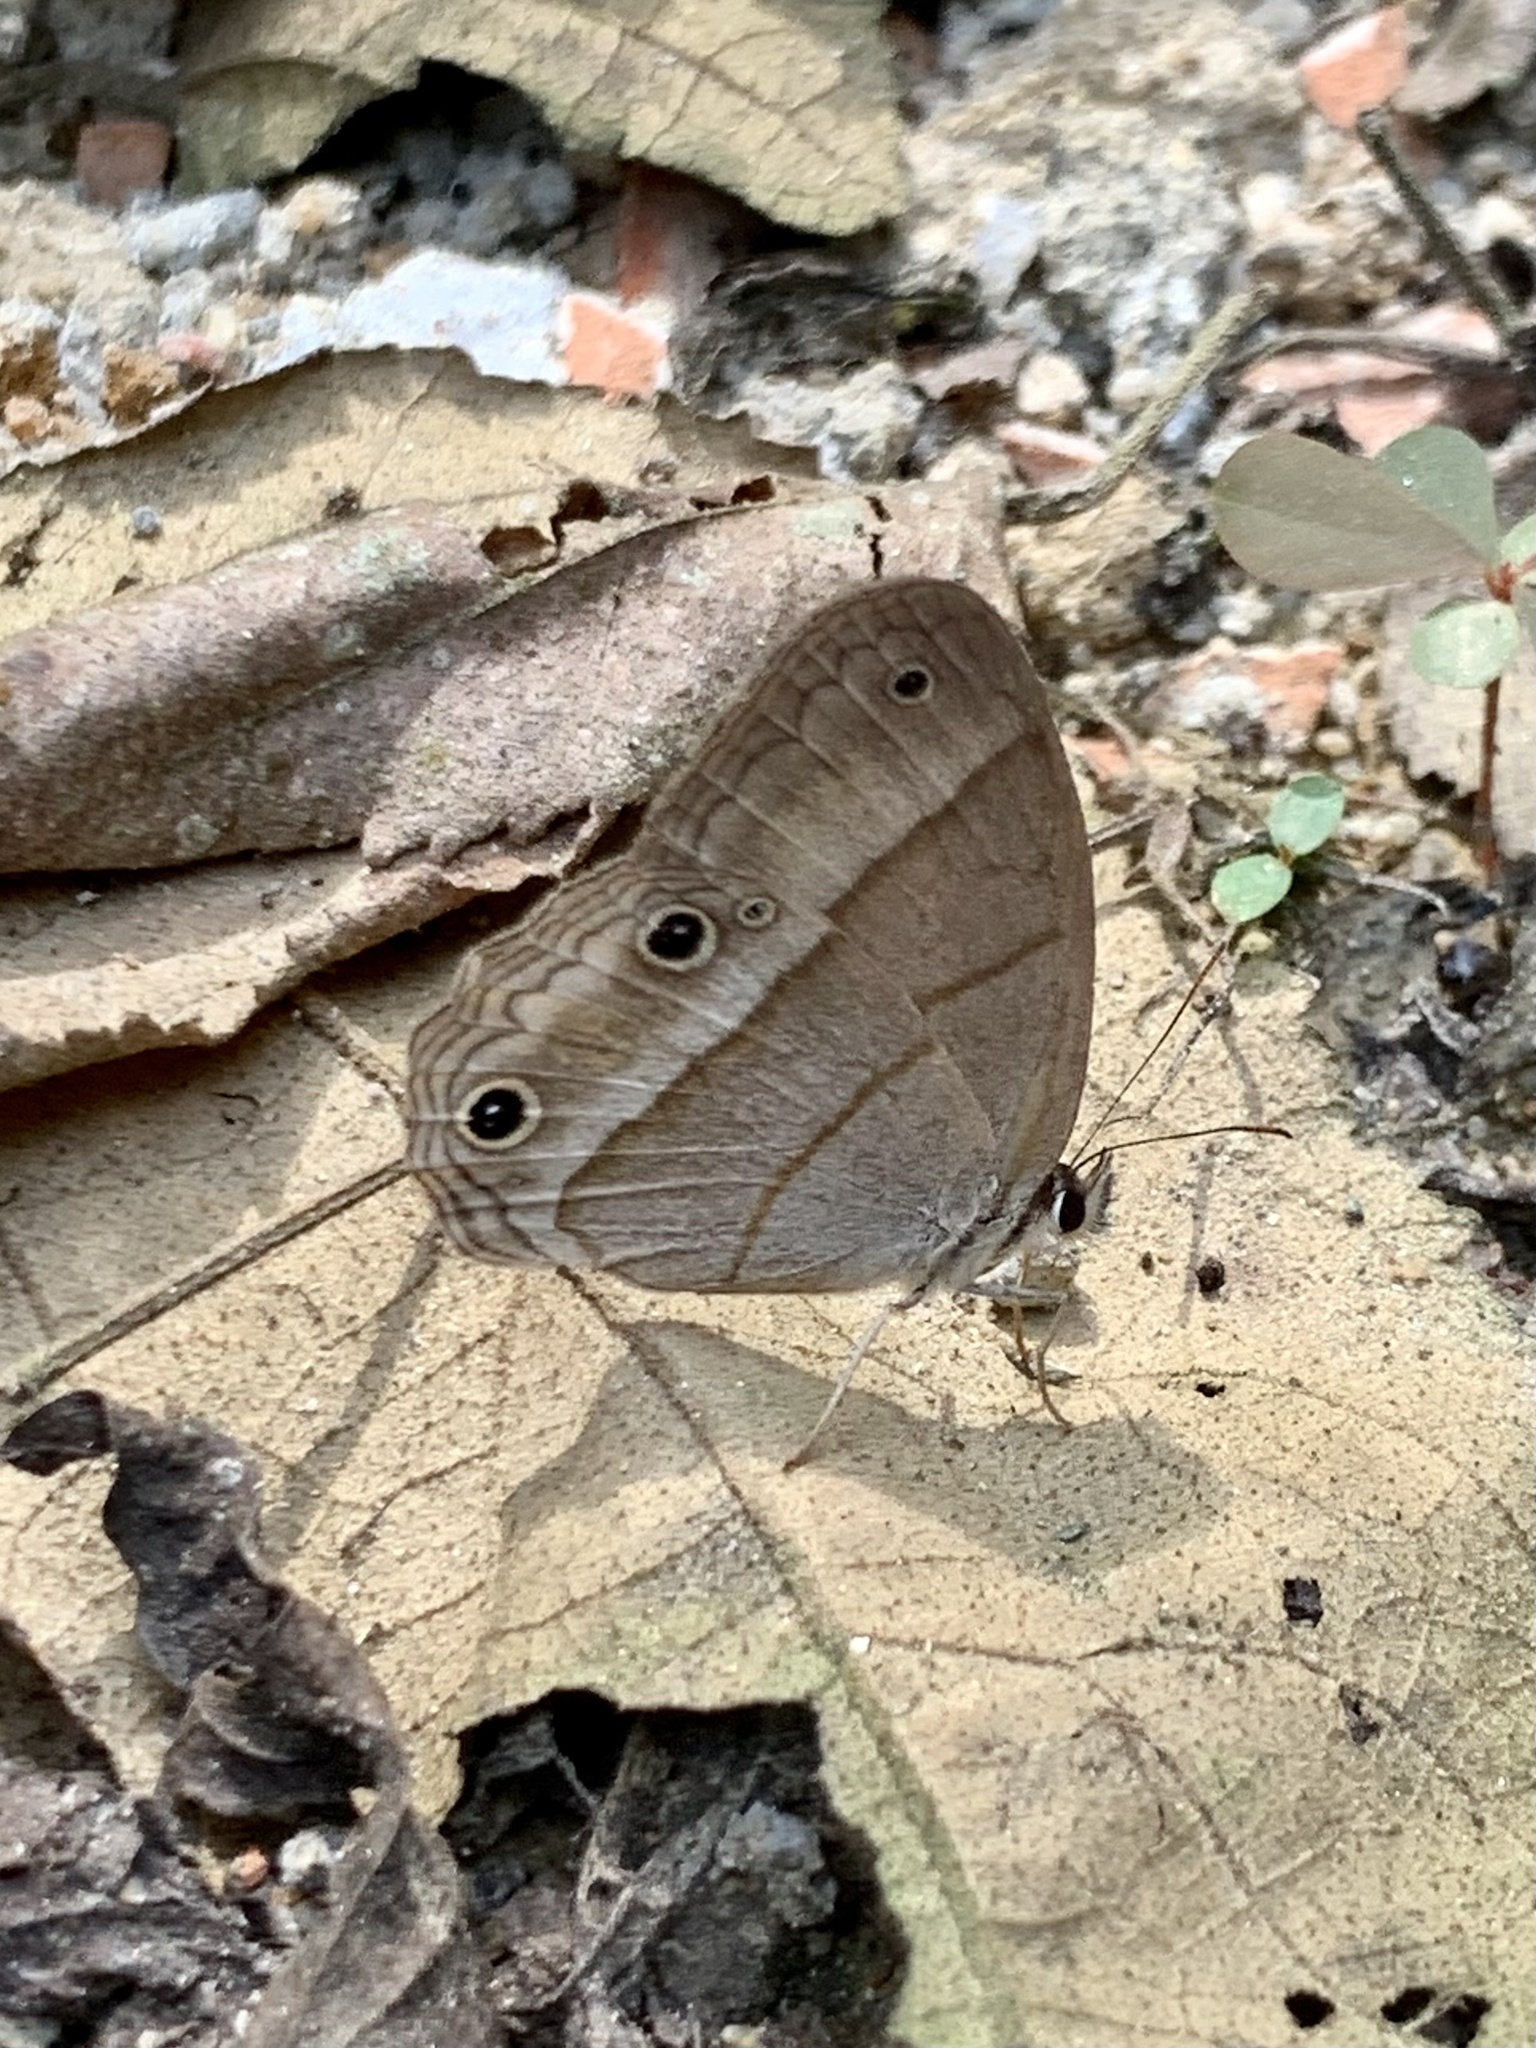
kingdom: Animalia
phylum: Arthropoda
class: Insecta
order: Lepidoptera
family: Nymphalidae
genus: Euptychia
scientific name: Euptychia Cissia pompilia
